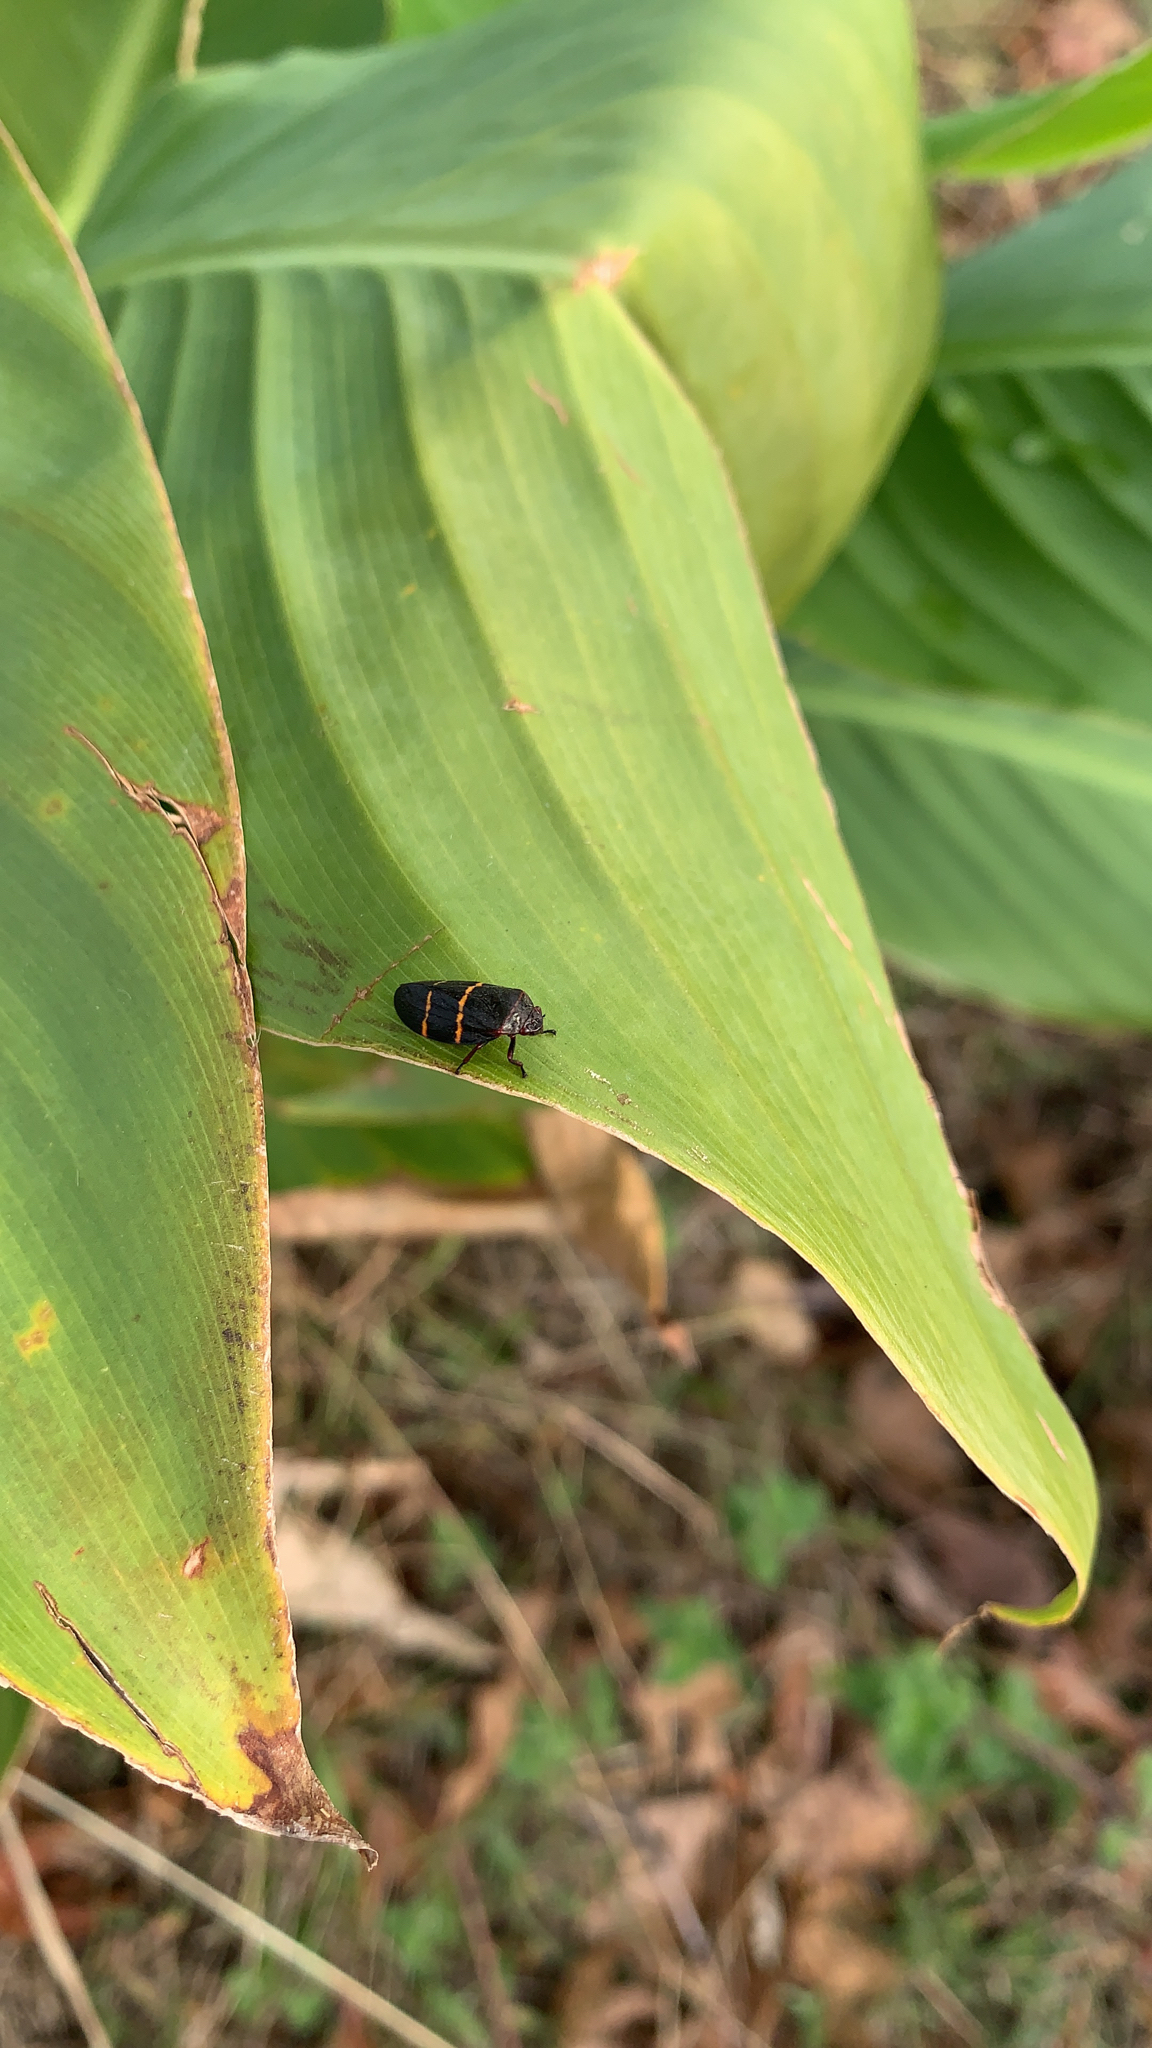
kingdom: Animalia
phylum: Arthropoda
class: Insecta
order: Hemiptera
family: Cercopidae
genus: Prosapia
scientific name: Prosapia bicincta
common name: Twolined spittlebug
